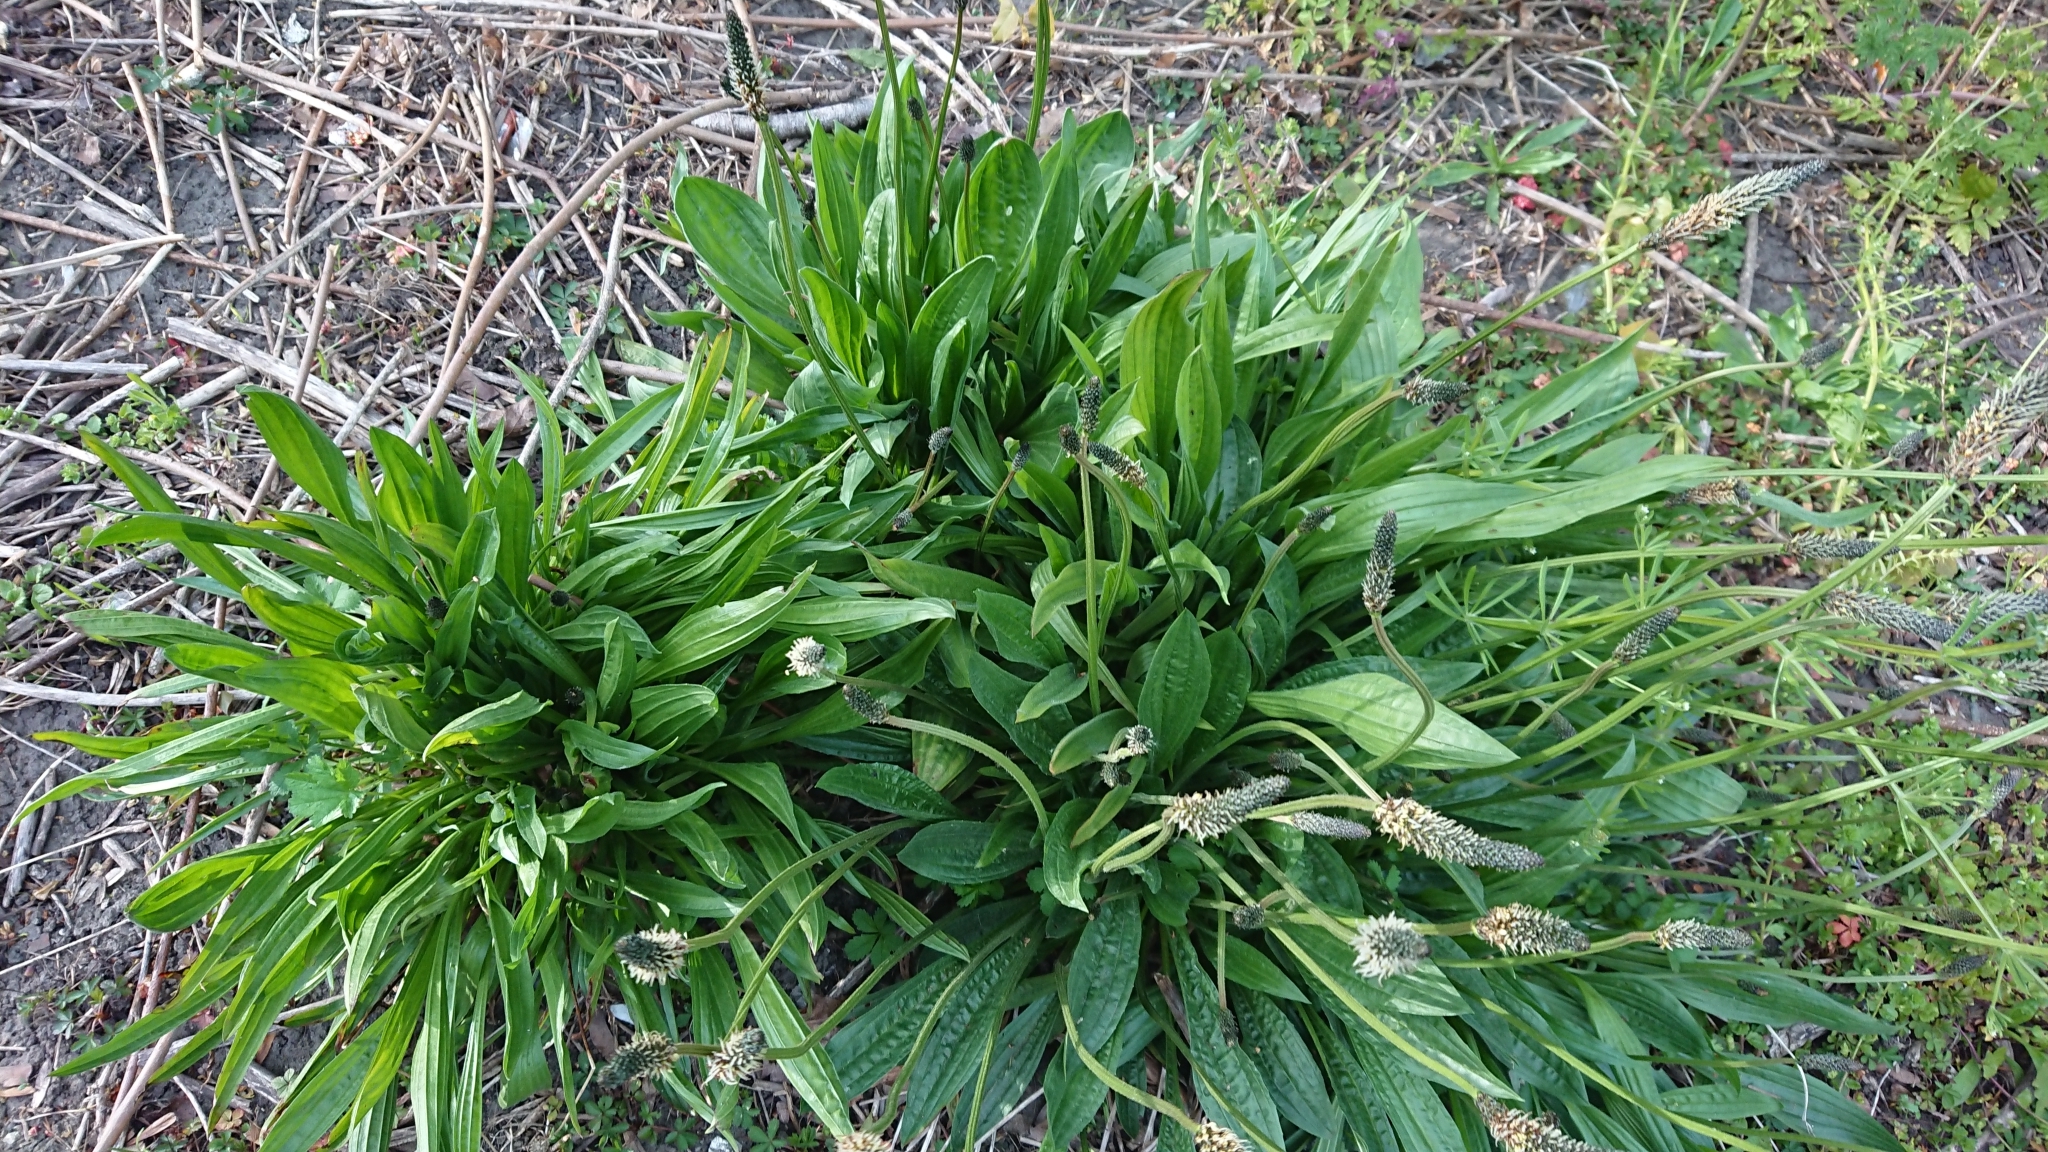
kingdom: Plantae
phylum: Tracheophyta
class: Magnoliopsida
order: Lamiales
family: Plantaginaceae
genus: Plantago
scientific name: Plantago lanceolata
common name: Ribwort plantain
